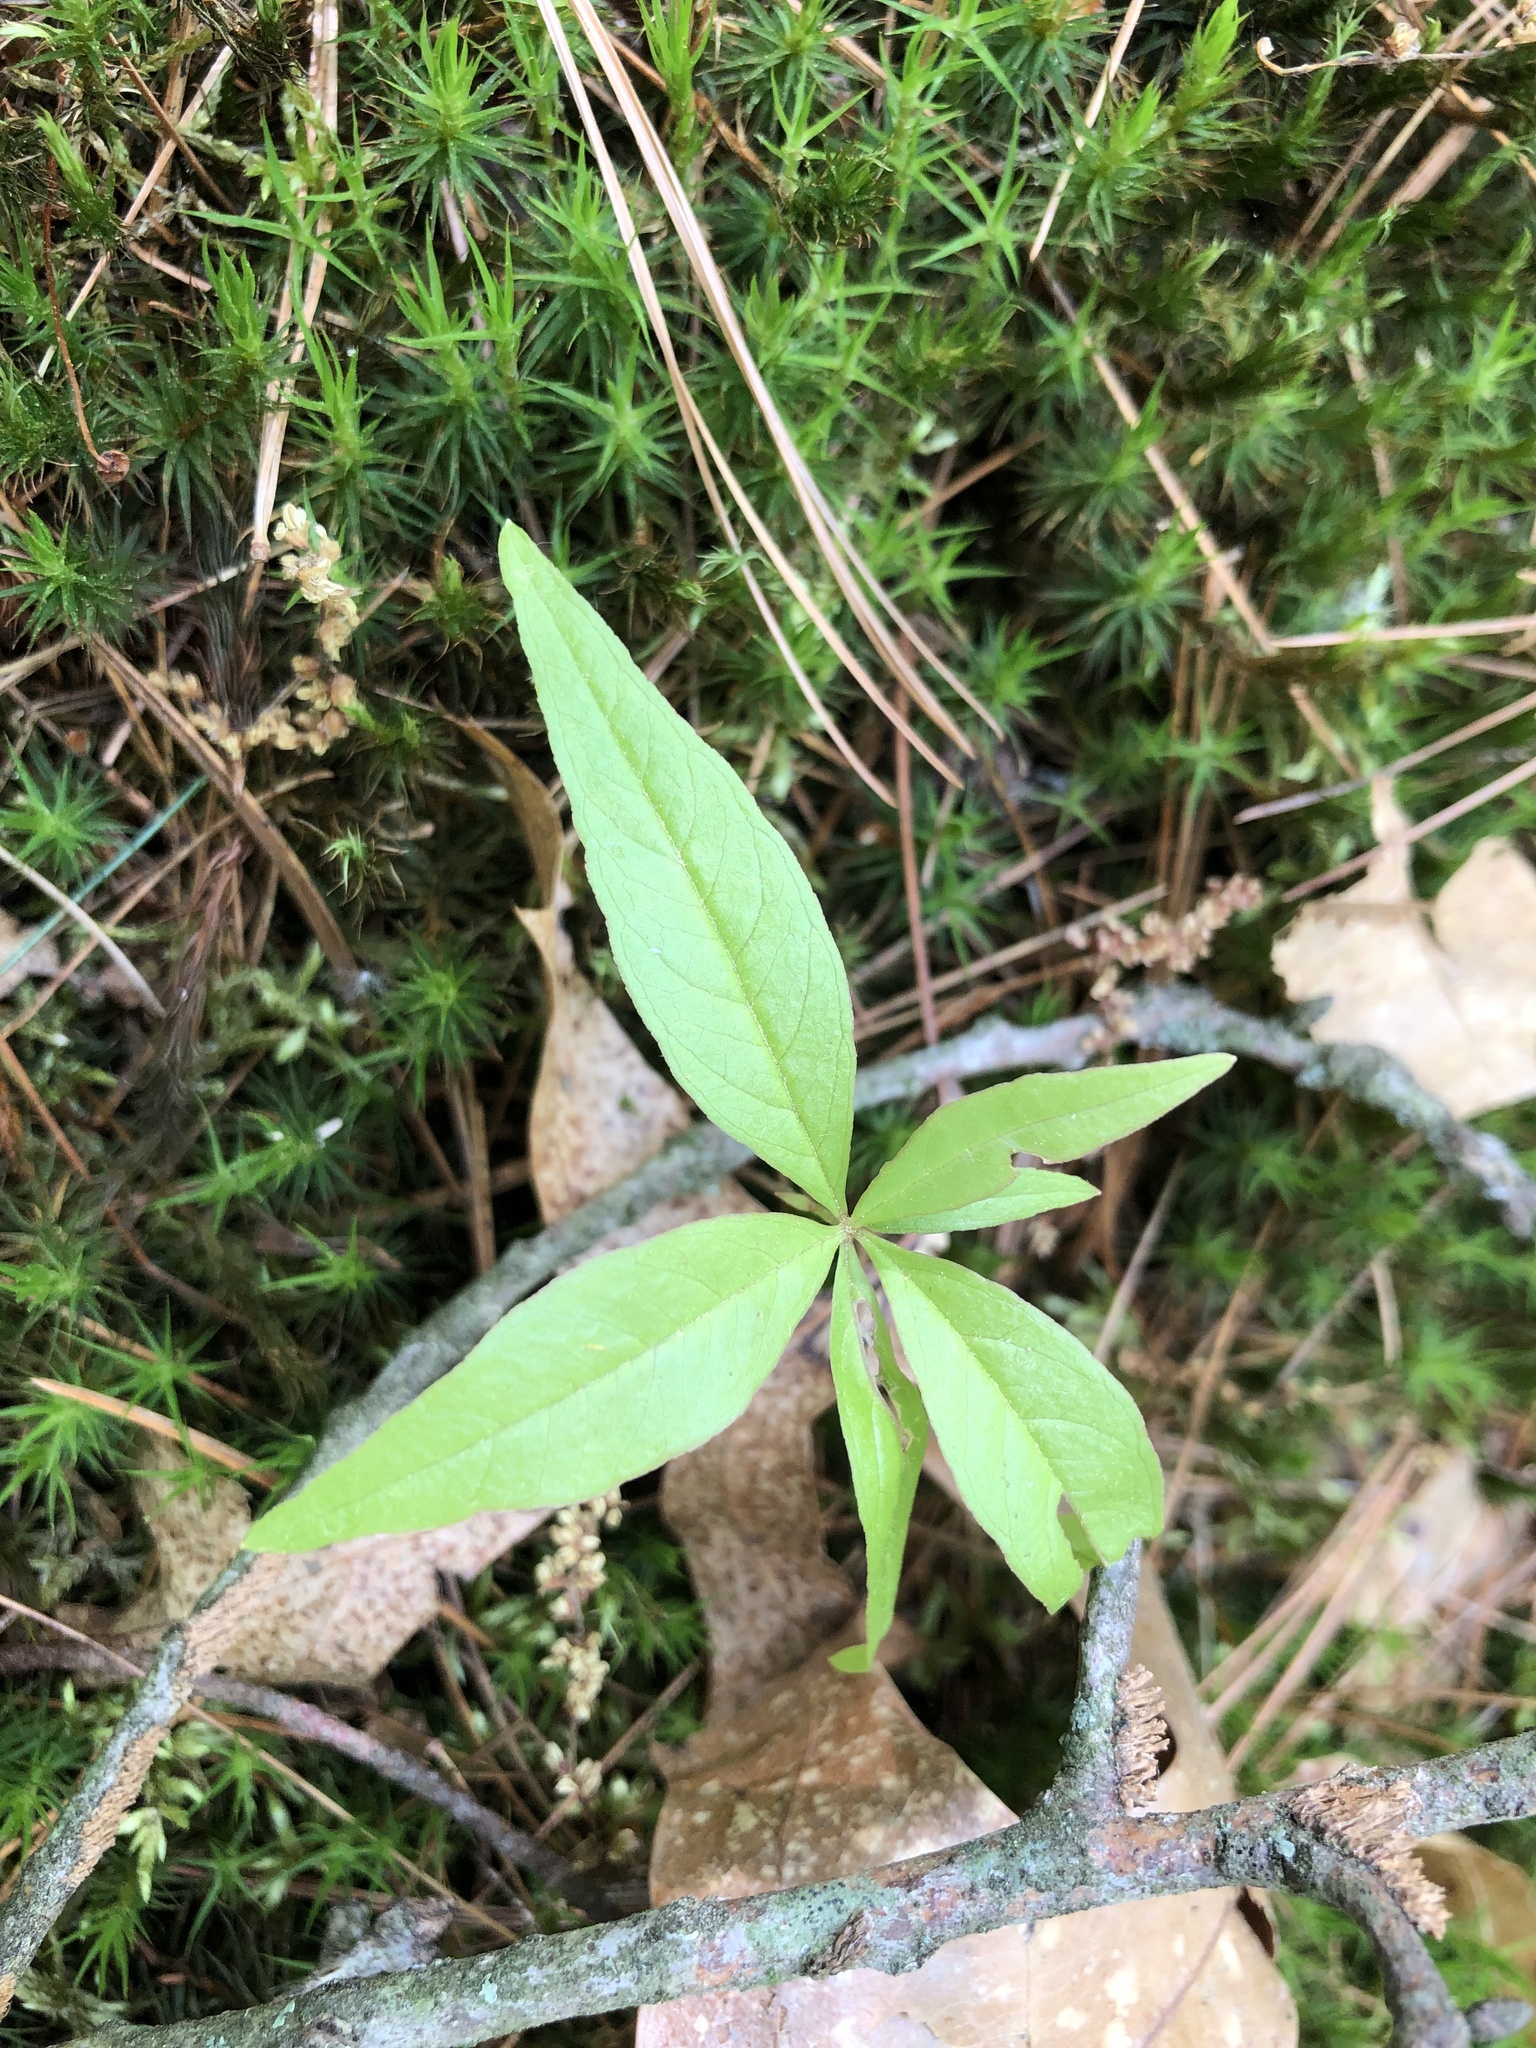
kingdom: Plantae
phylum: Tracheophyta
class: Magnoliopsida
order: Ericales
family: Primulaceae
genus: Lysimachia
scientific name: Lysimachia borealis
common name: American starflower
